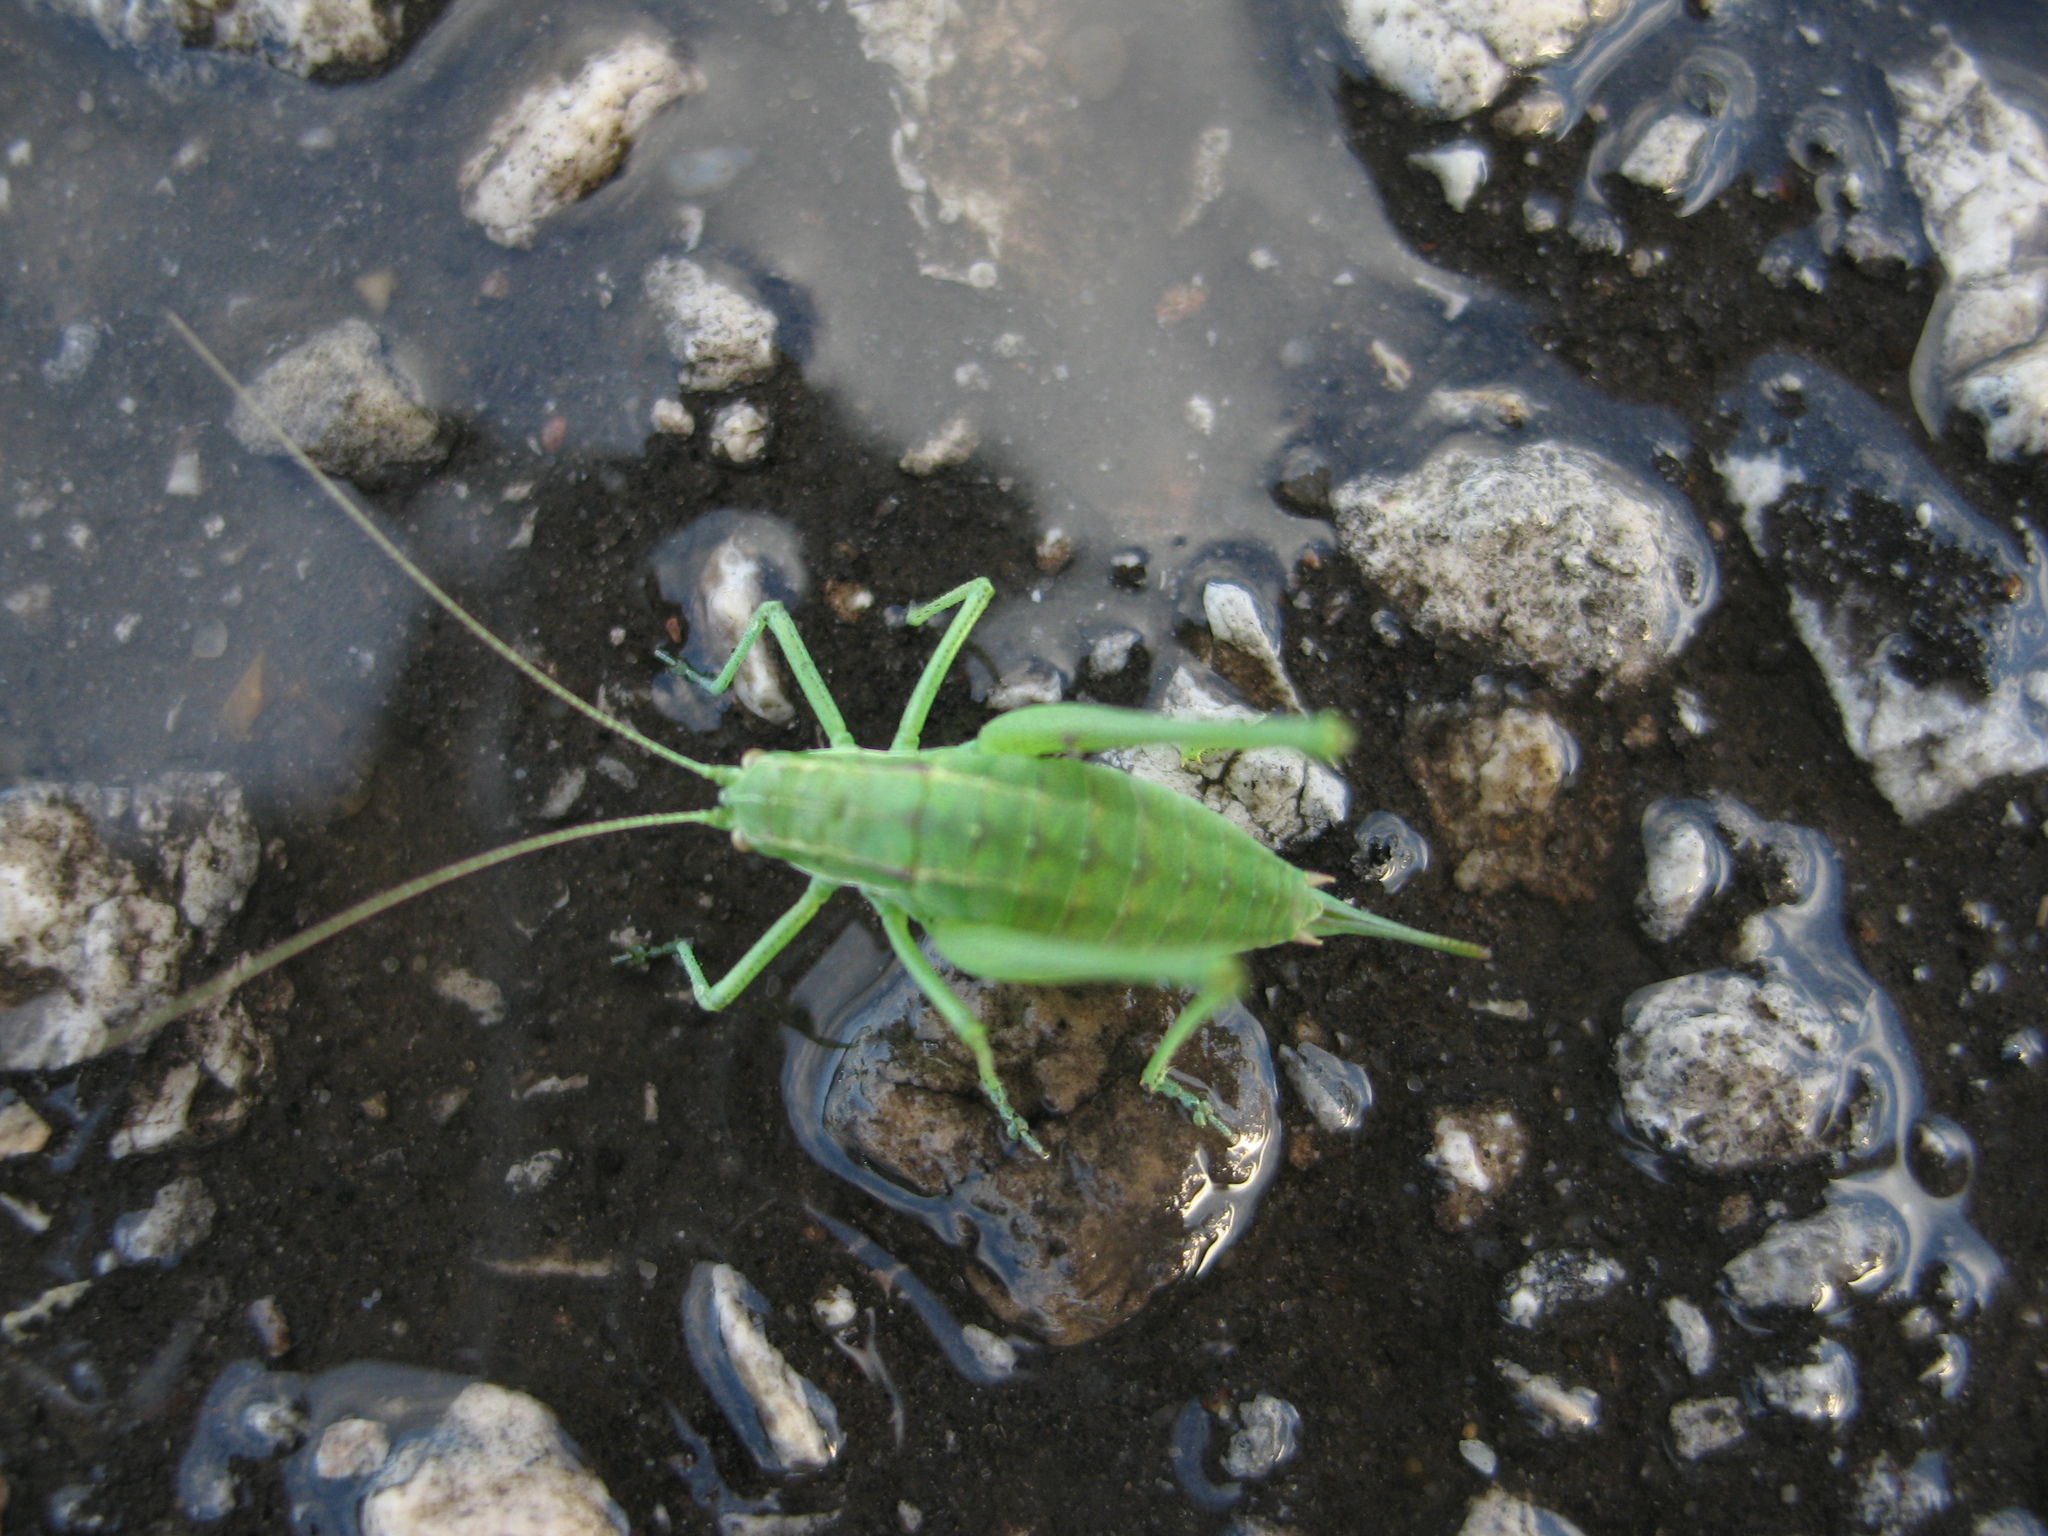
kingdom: Animalia
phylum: Arthropoda
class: Insecta
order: Orthoptera
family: Tettigoniidae
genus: Poecilimon
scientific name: Poecilimon intermedius
